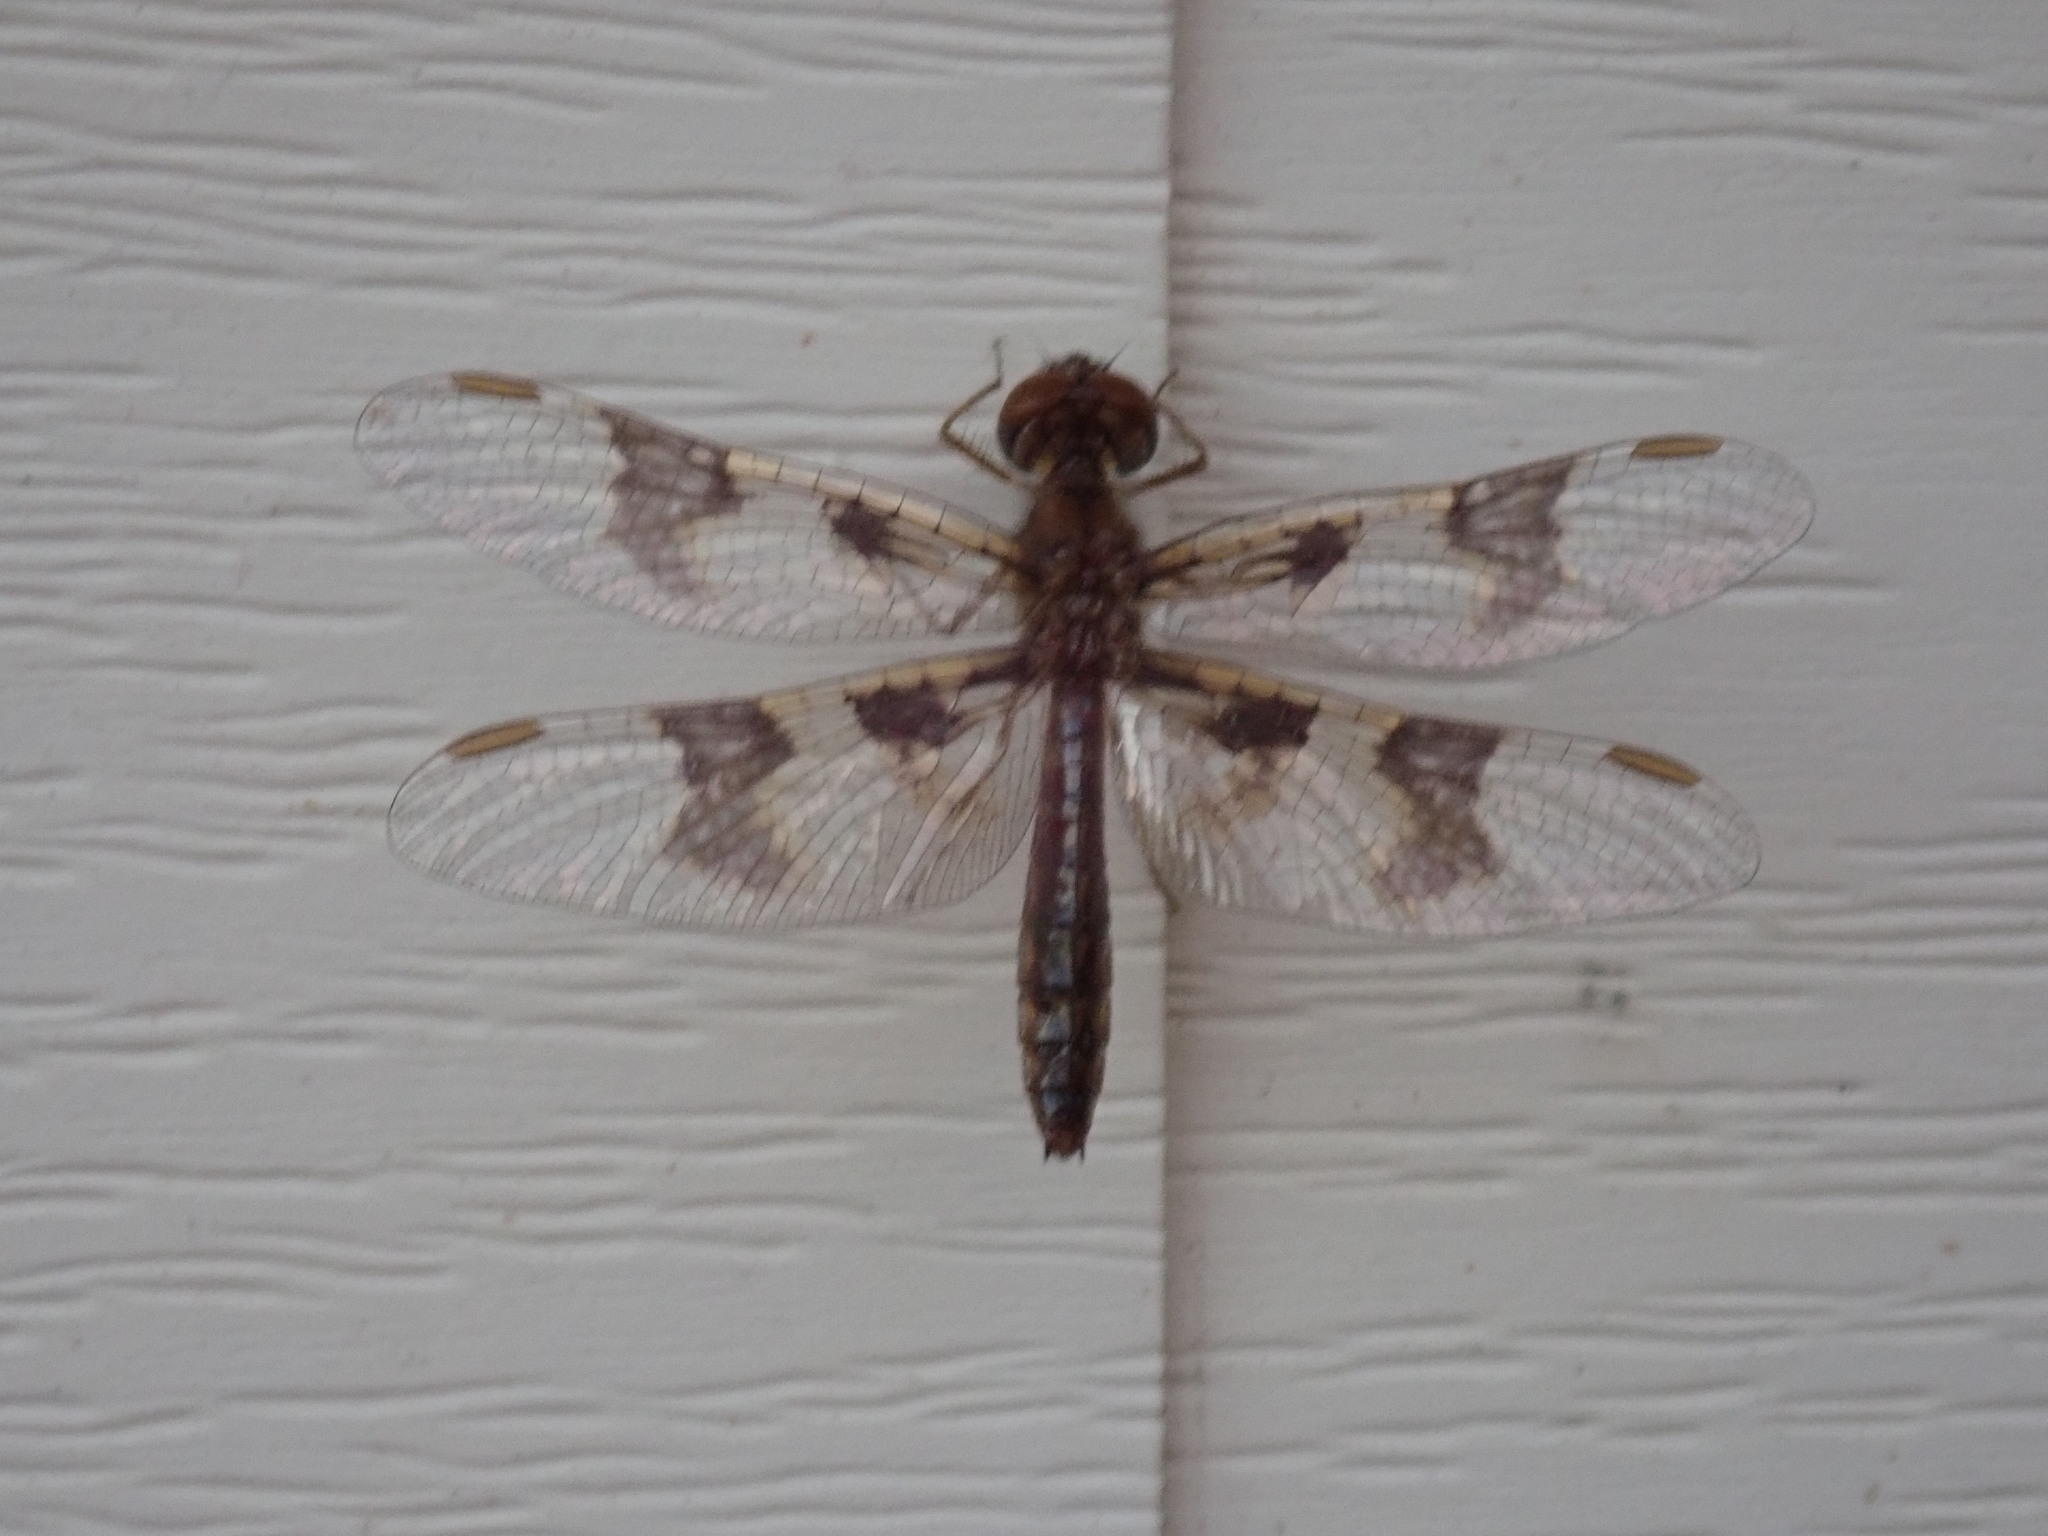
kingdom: Animalia
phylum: Arthropoda
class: Insecta
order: Odonata
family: Libellulidae
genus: Perithemis
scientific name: Perithemis tenera
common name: Eastern amberwing
